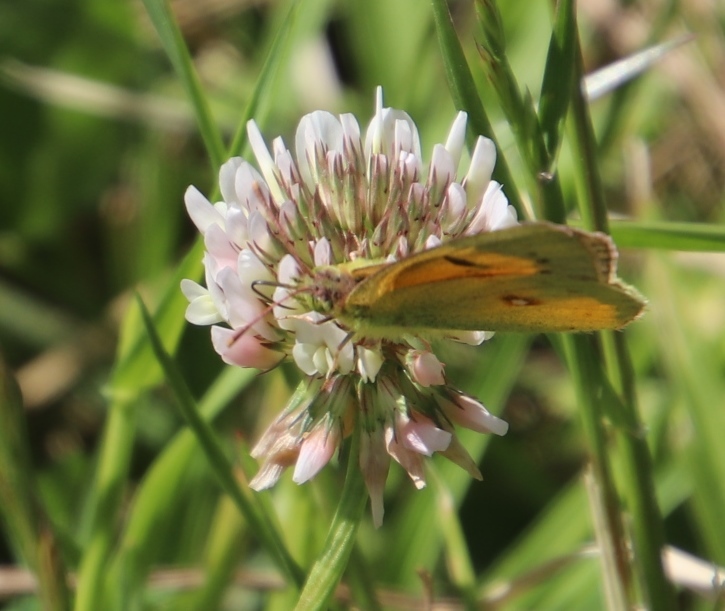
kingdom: Plantae
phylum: Tracheophyta
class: Magnoliopsida
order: Fabales
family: Fabaceae
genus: Trifolium
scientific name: Trifolium repens
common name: White clover
